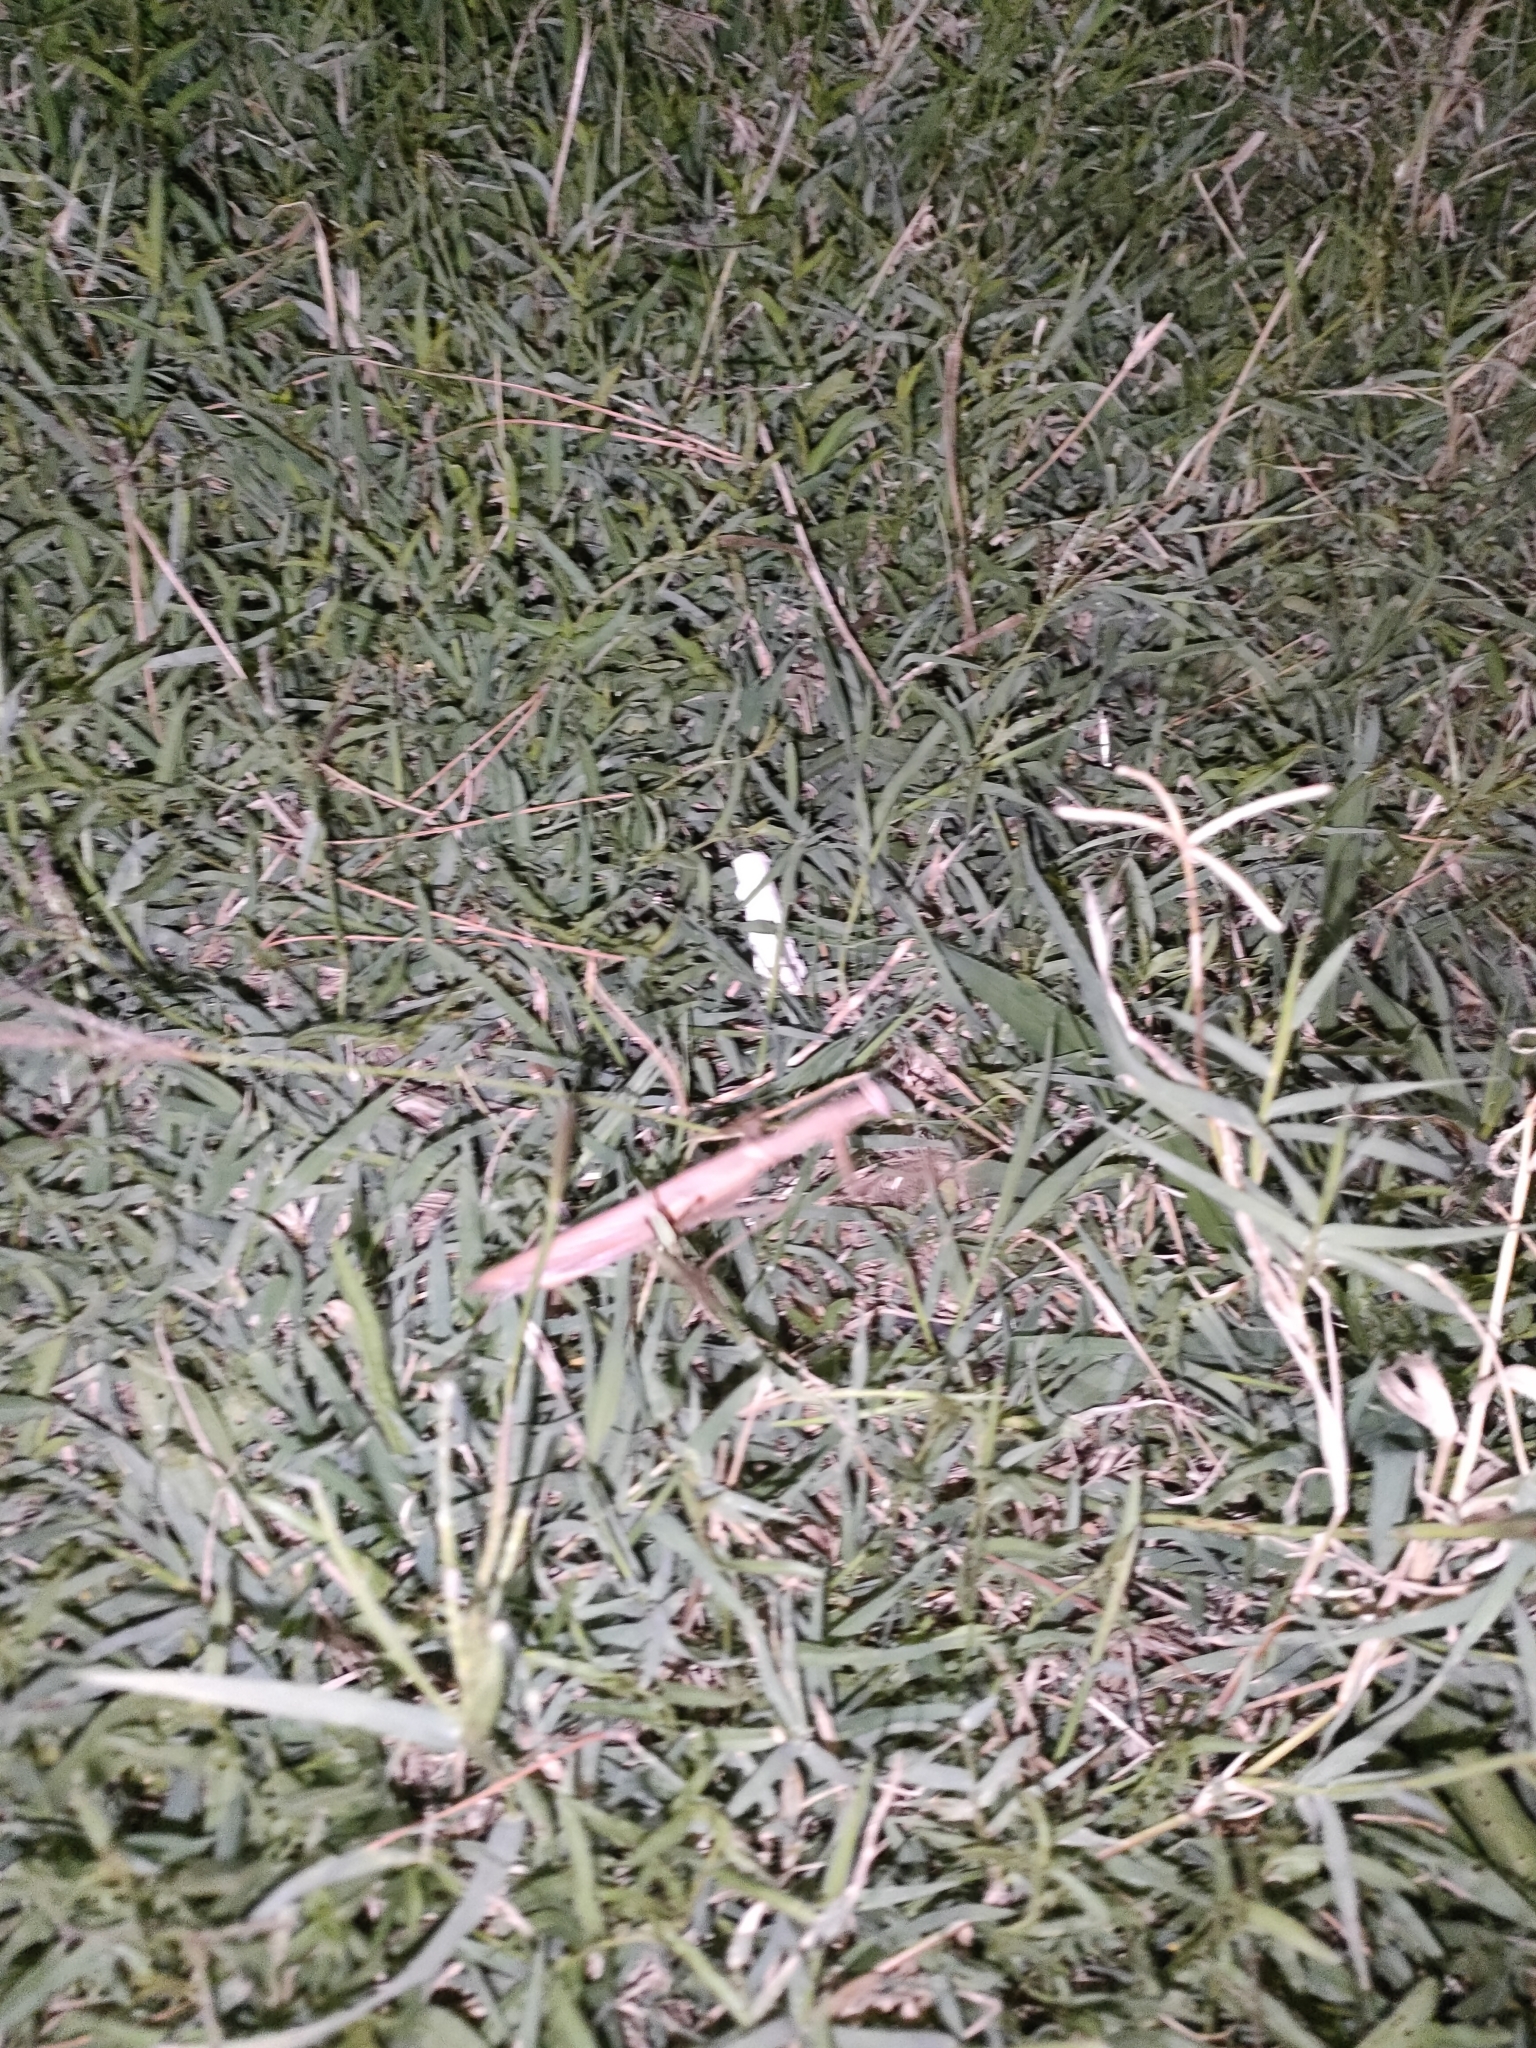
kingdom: Animalia
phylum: Arthropoda
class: Insecta
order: Mantodea
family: Mantidae
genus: Mantis
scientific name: Mantis religiosa
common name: Praying mantis
